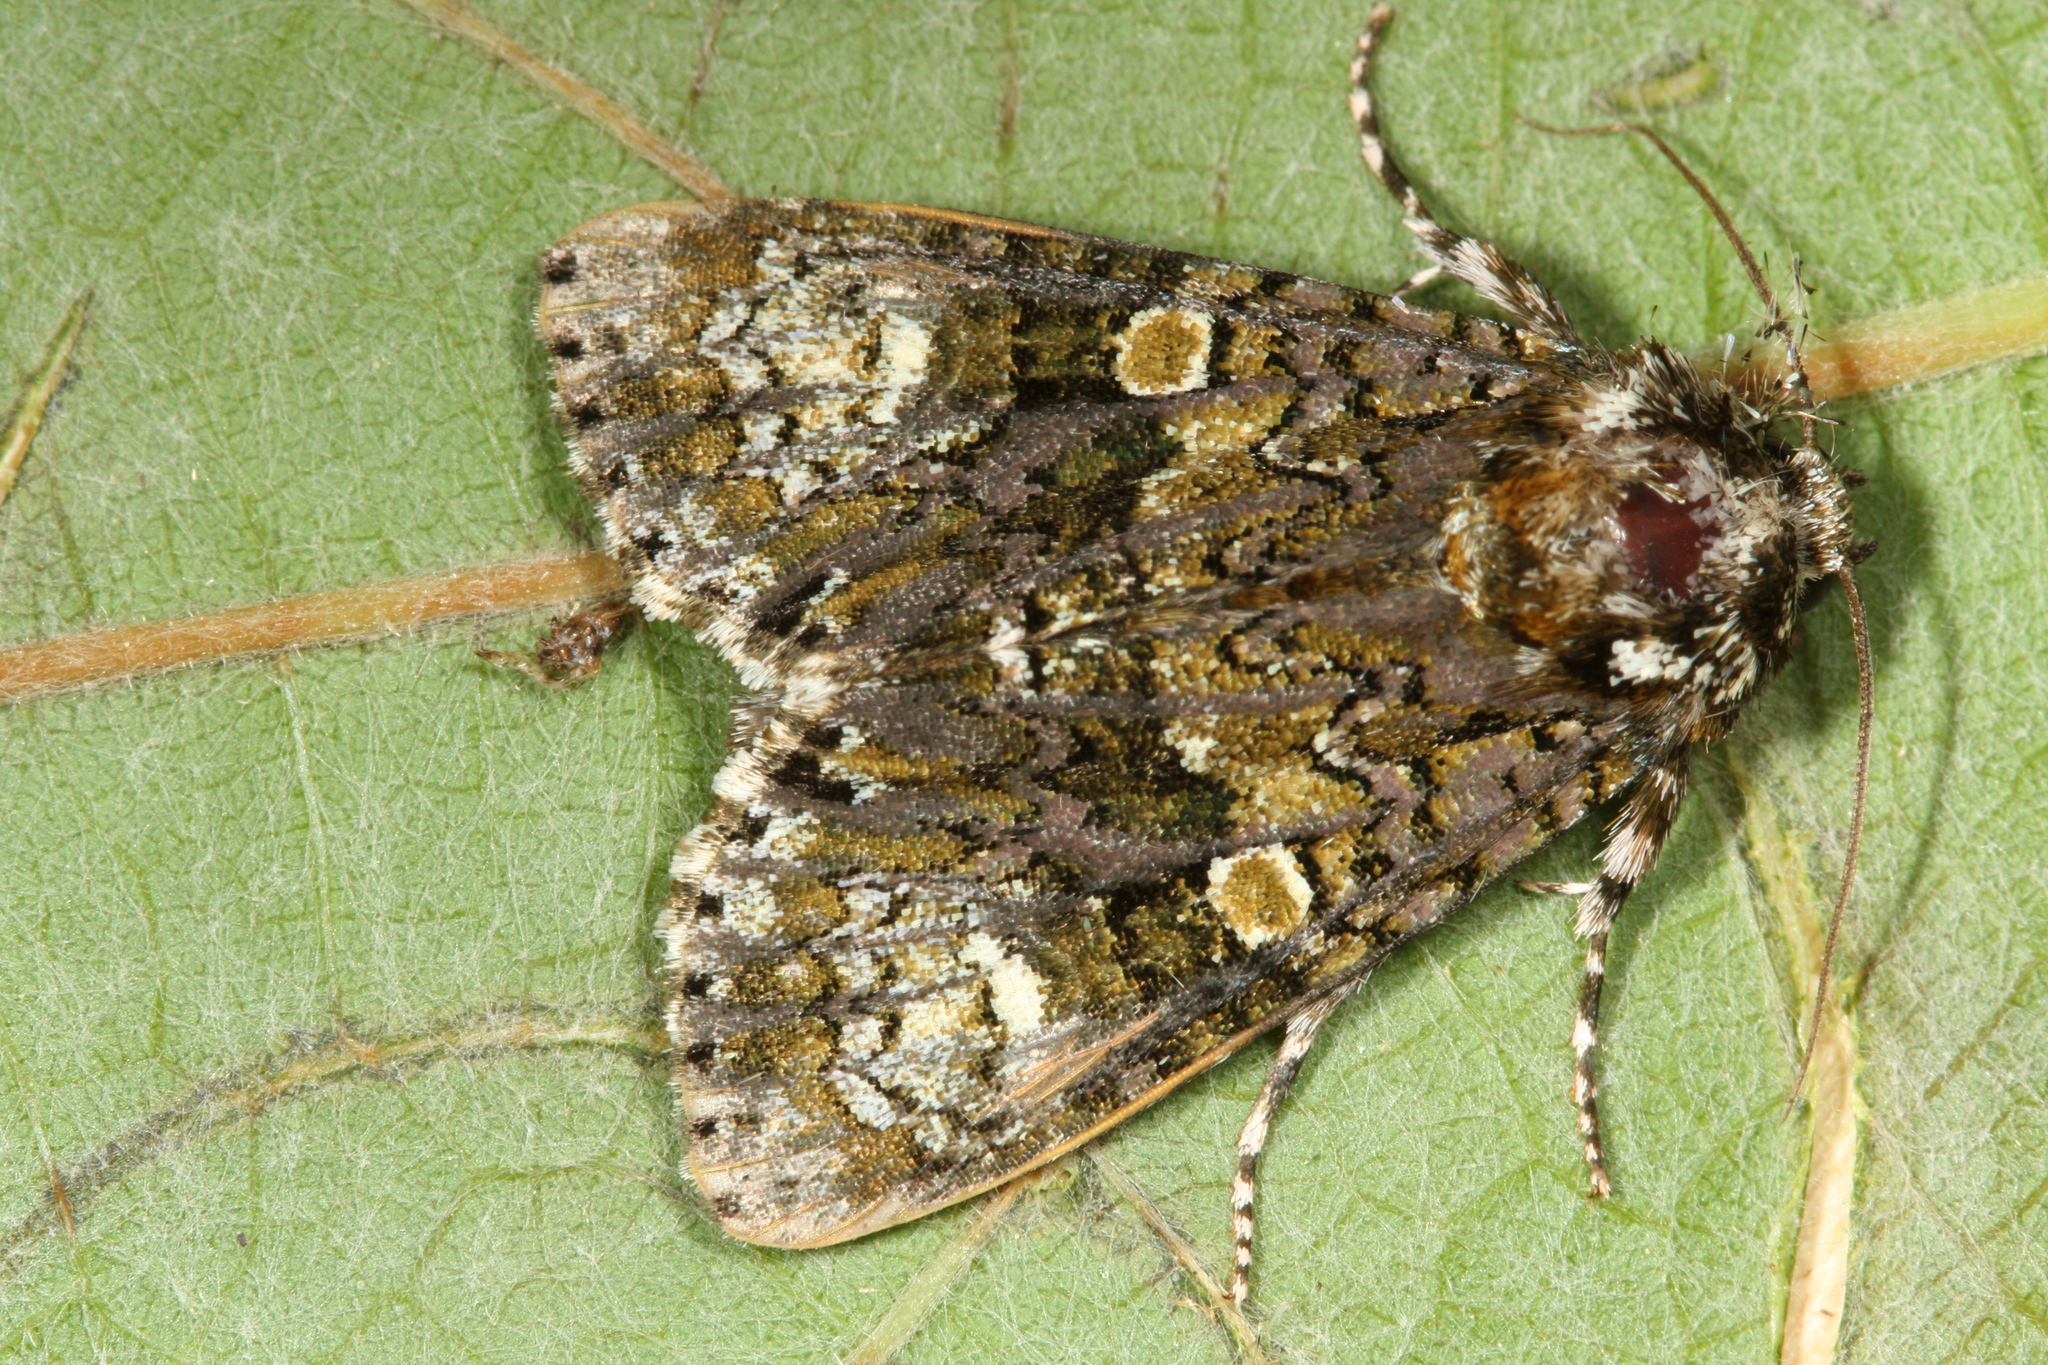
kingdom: Animalia
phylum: Arthropoda
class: Insecta
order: Lepidoptera
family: Noctuidae
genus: Craniophora
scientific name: Craniophora ligustri
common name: Coronet
